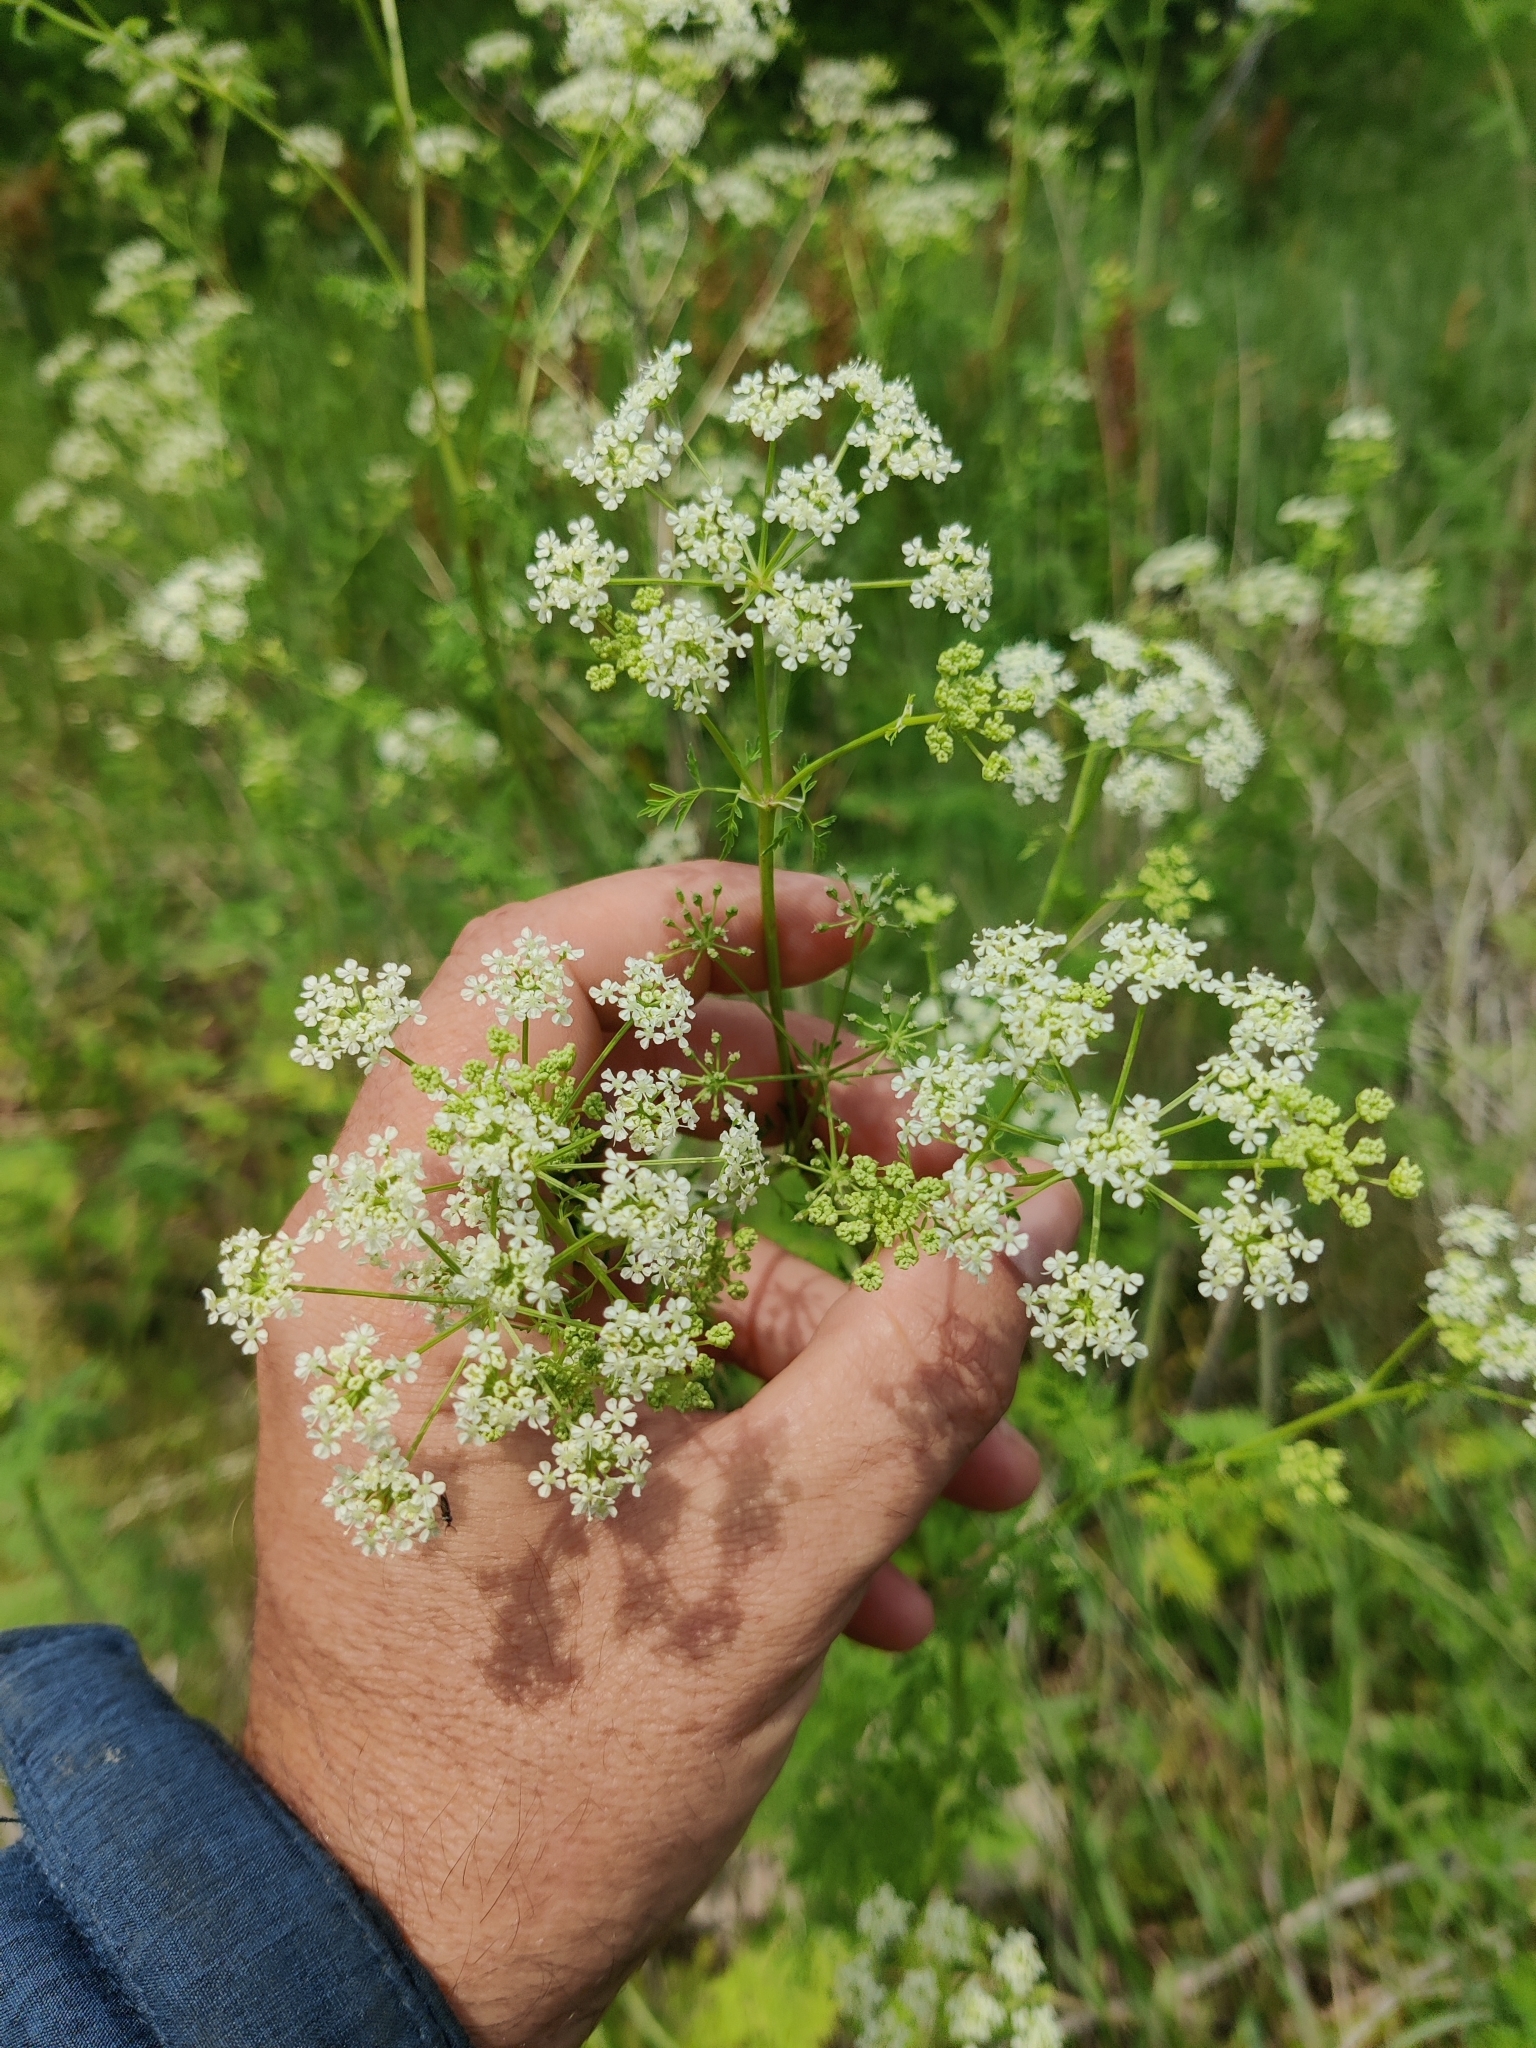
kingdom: Plantae
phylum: Tracheophyta
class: Magnoliopsida
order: Apiales
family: Apiaceae
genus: Conium
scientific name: Conium maculatum
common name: Hemlock
